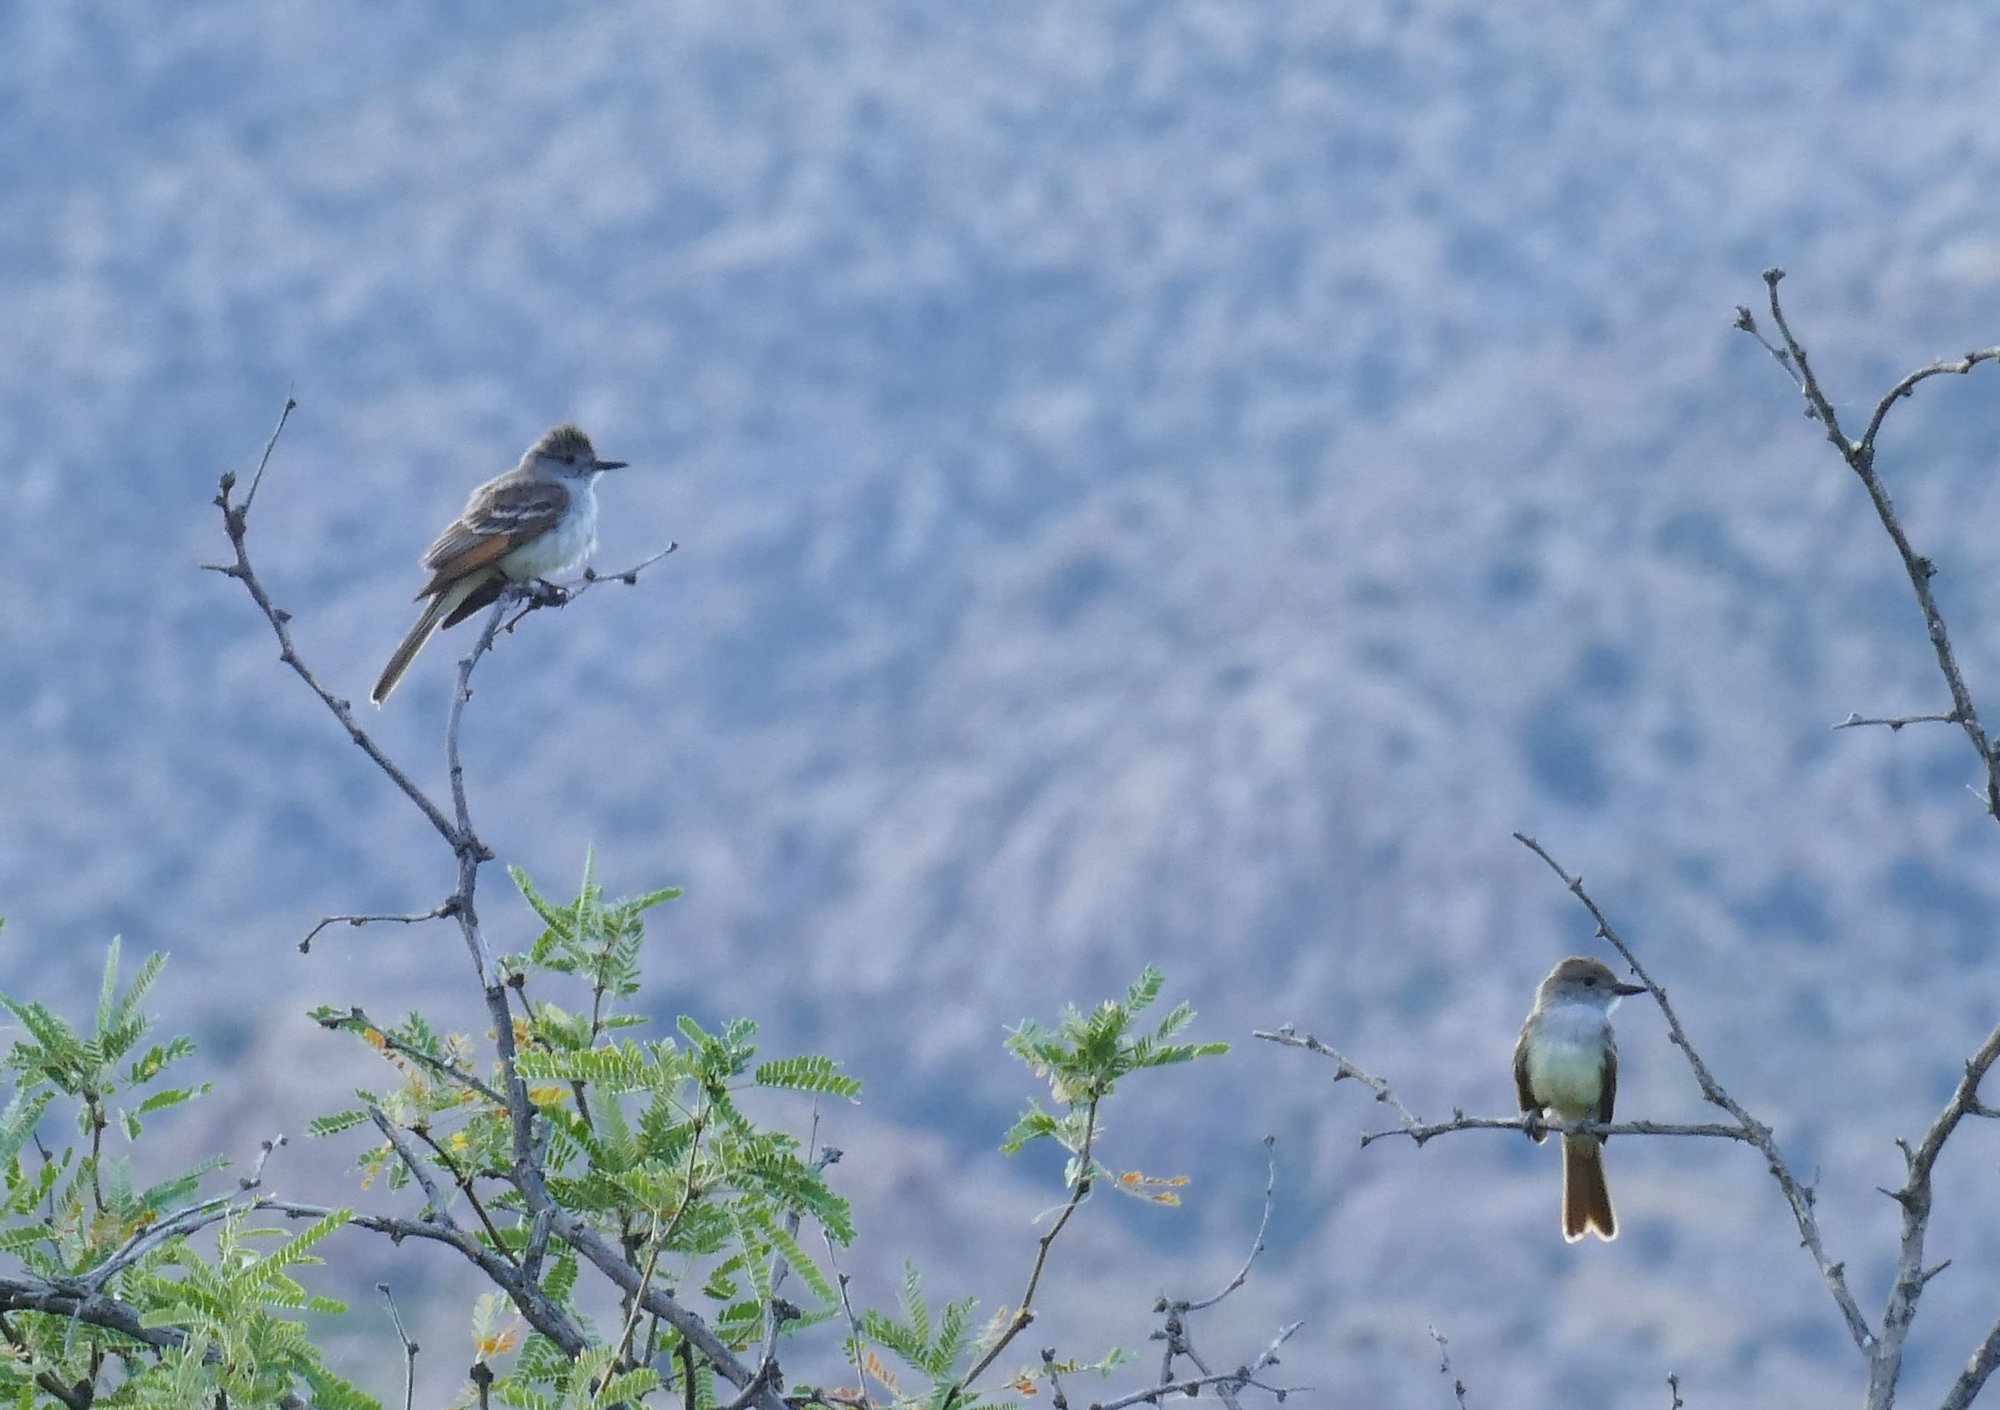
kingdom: Animalia
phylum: Chordata
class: Aves
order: Passeriformes
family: Tyrannidae
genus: Myiarchus
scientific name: Myiarchus cinerascens
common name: Ash-throated flycatcher
